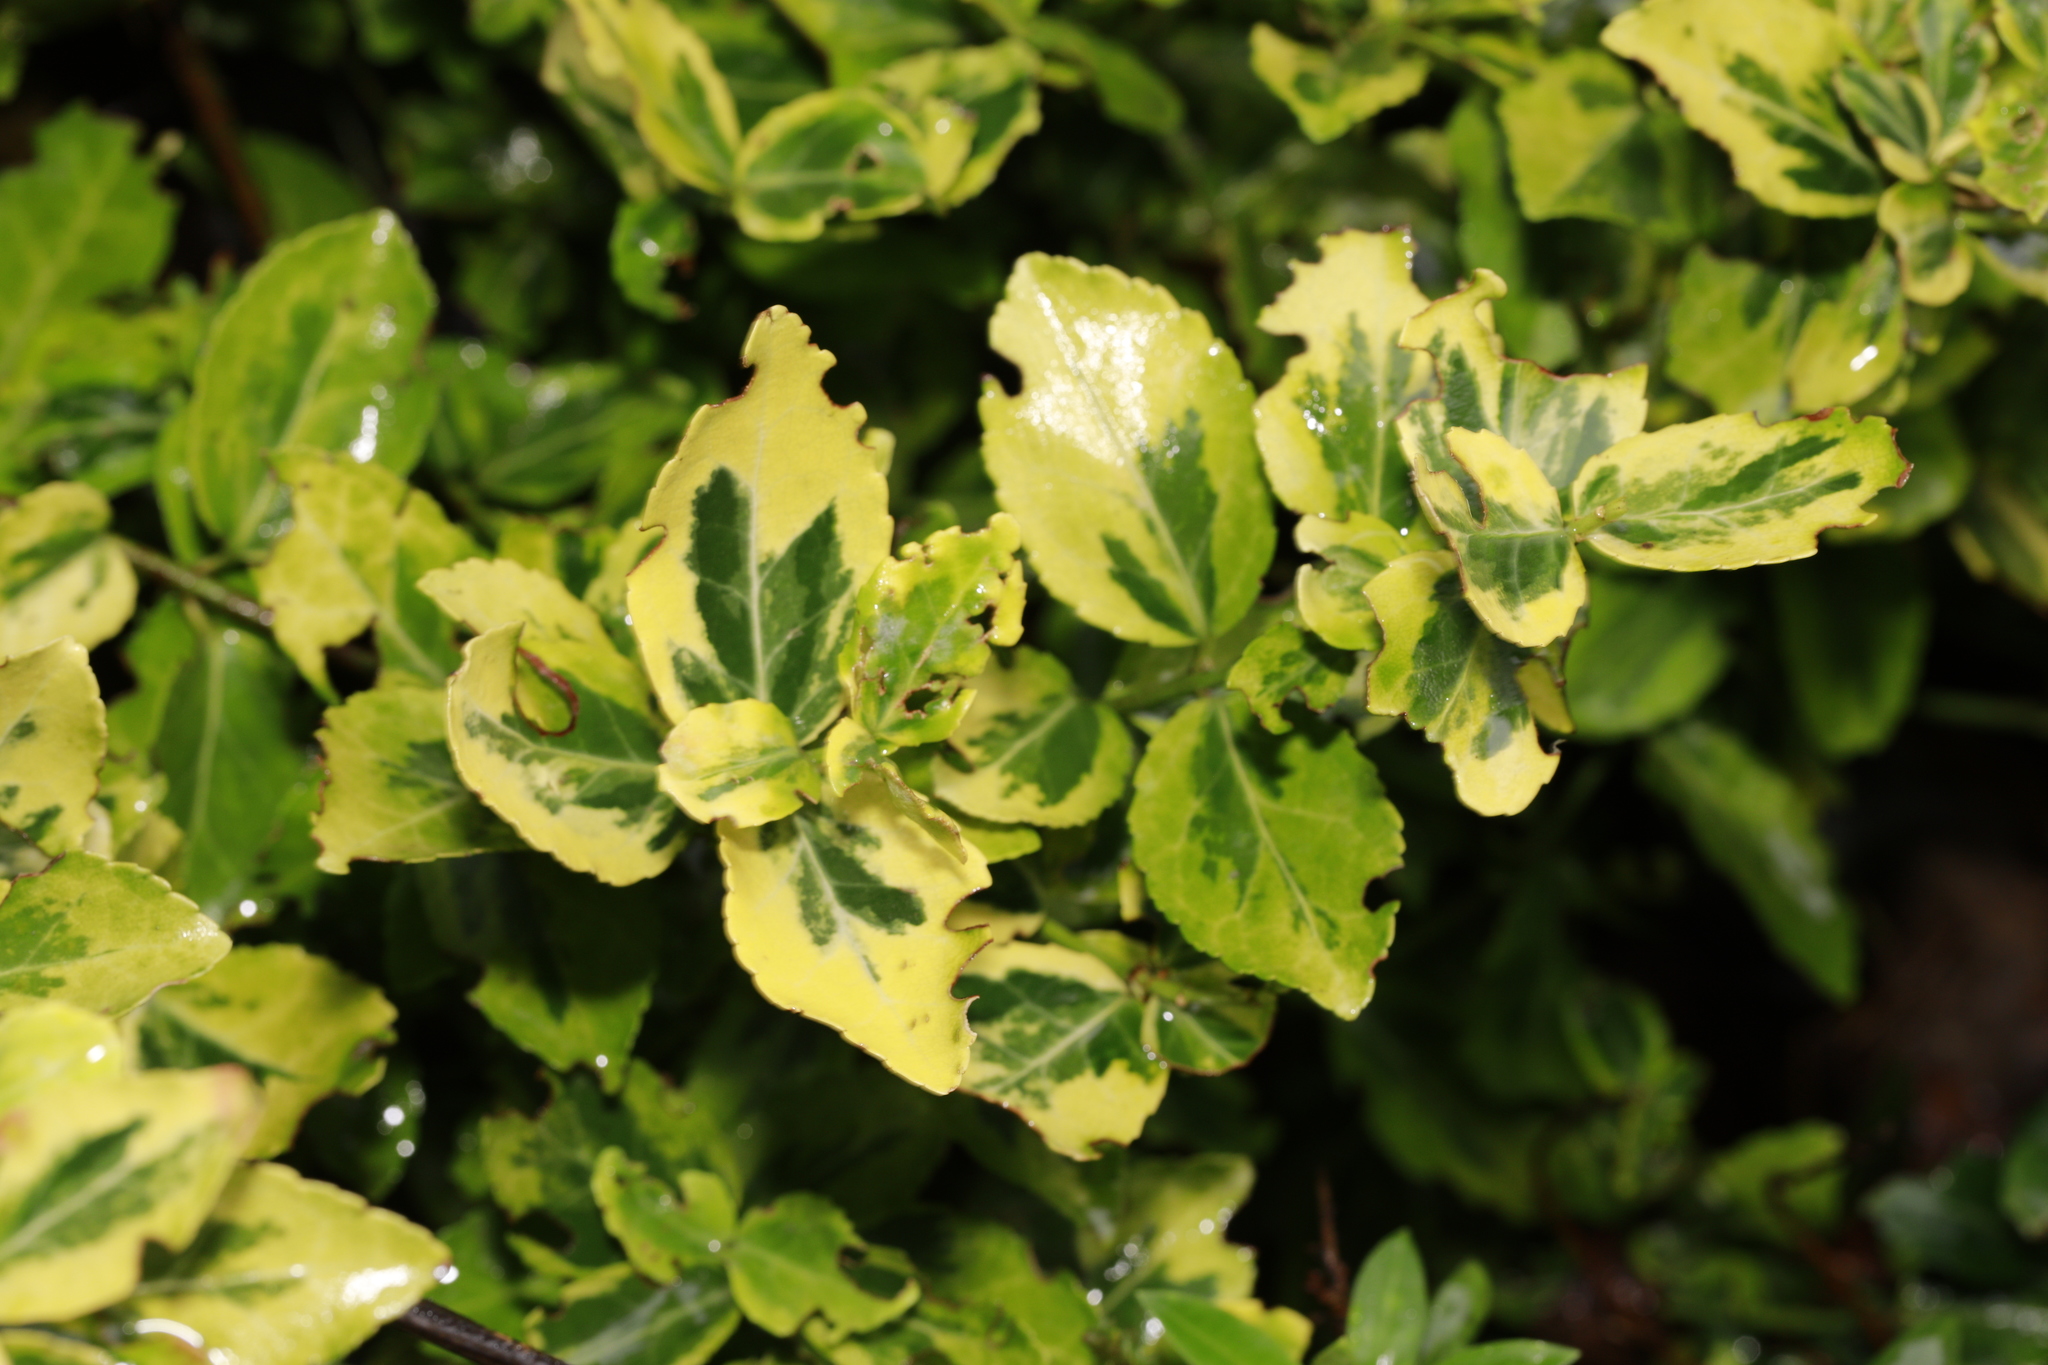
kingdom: Plantae
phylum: Tracheophyta
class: Magnoliopsida
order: Celastrales
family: Celastraceae
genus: Euonymus
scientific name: Euonymus japonicus
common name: Japanese spindletree
